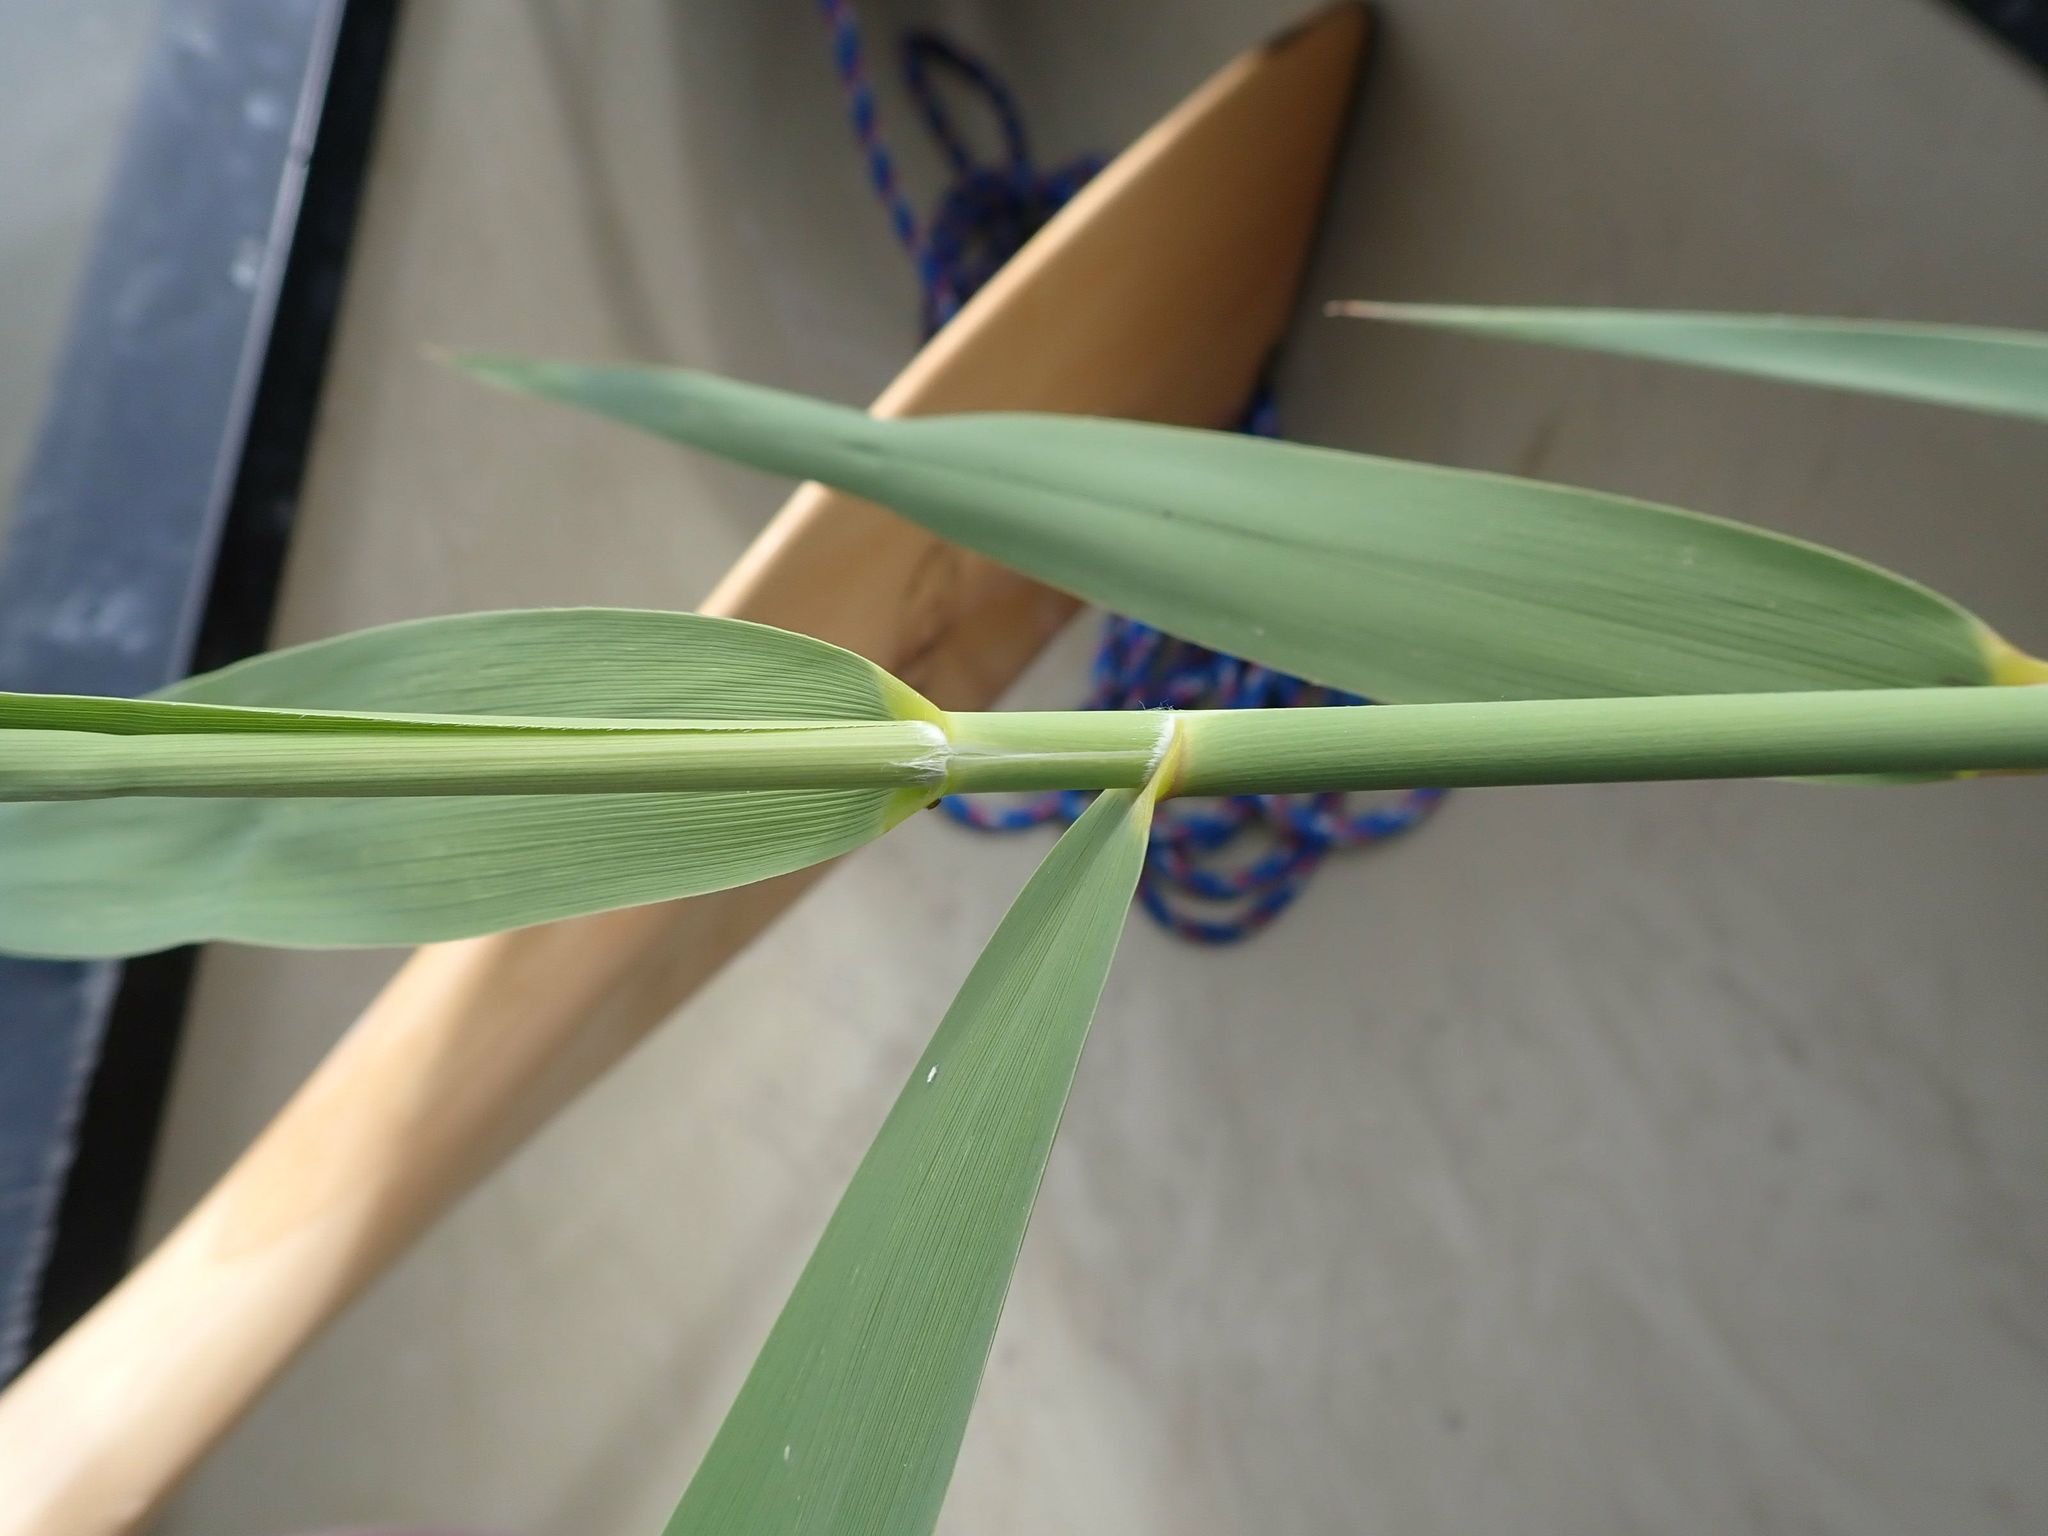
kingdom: Plantae
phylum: Tracheophyta
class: Liliopsida
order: Poales
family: Poaceae
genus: Phragmites
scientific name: Phragmites australis
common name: Common reed
